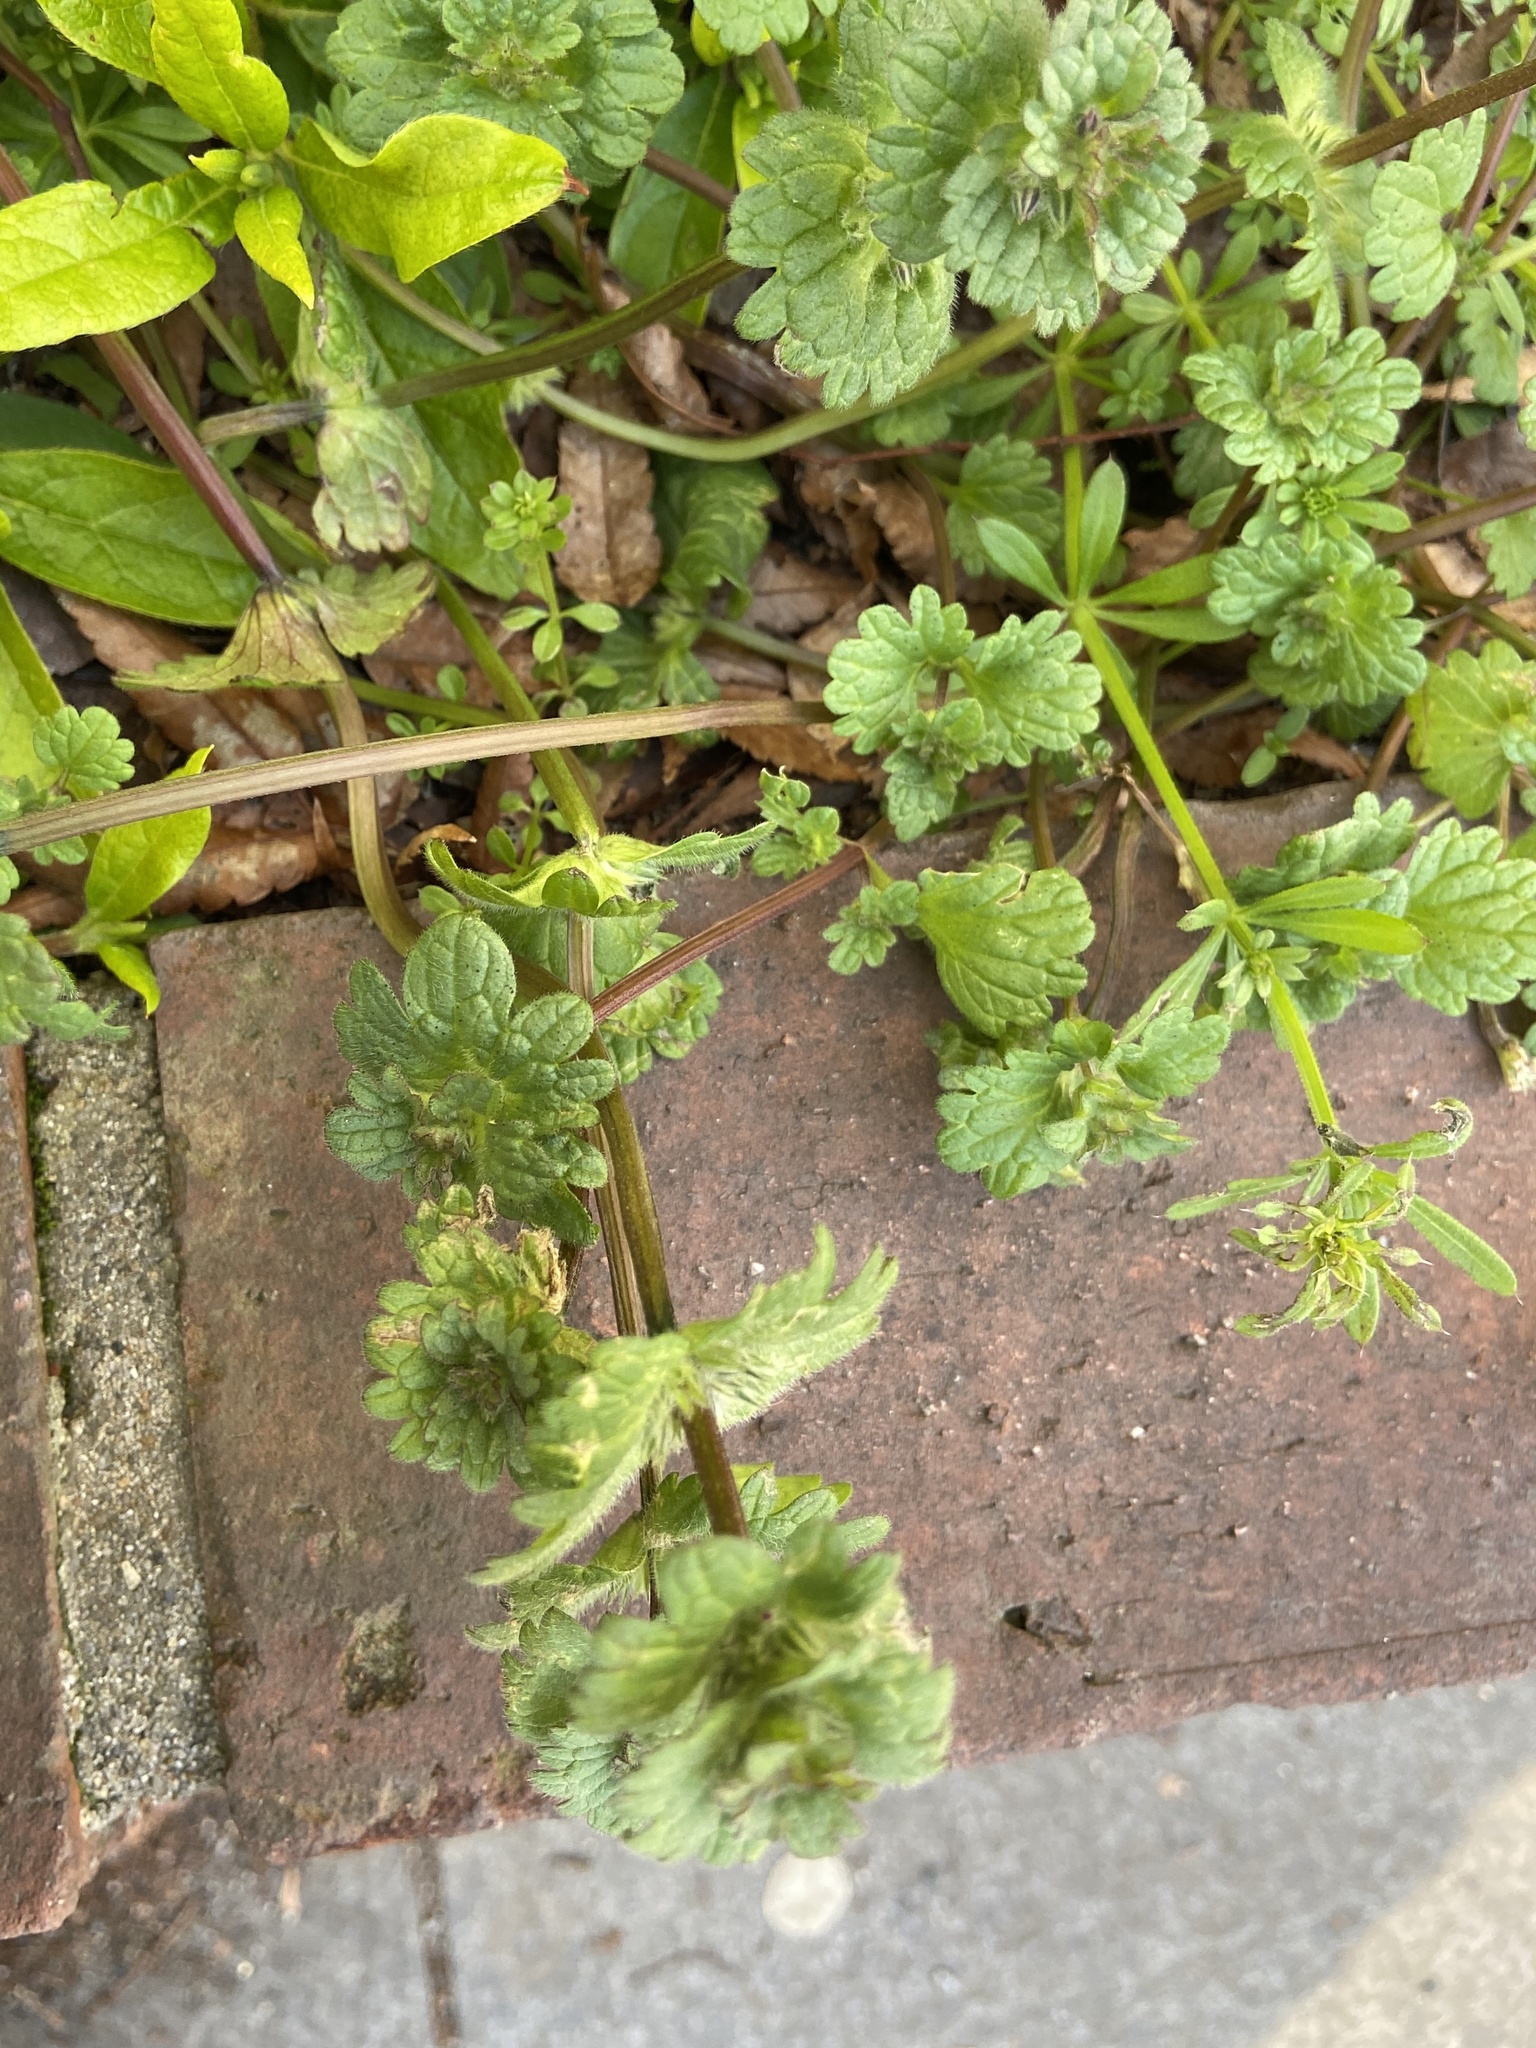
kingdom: Plantae
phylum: Tracheophyta
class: Magnoliopsida
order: Lamiales
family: Lamiaceae
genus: Lamium
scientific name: Lamium amplexicaule
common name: Henbit dead-nettle
